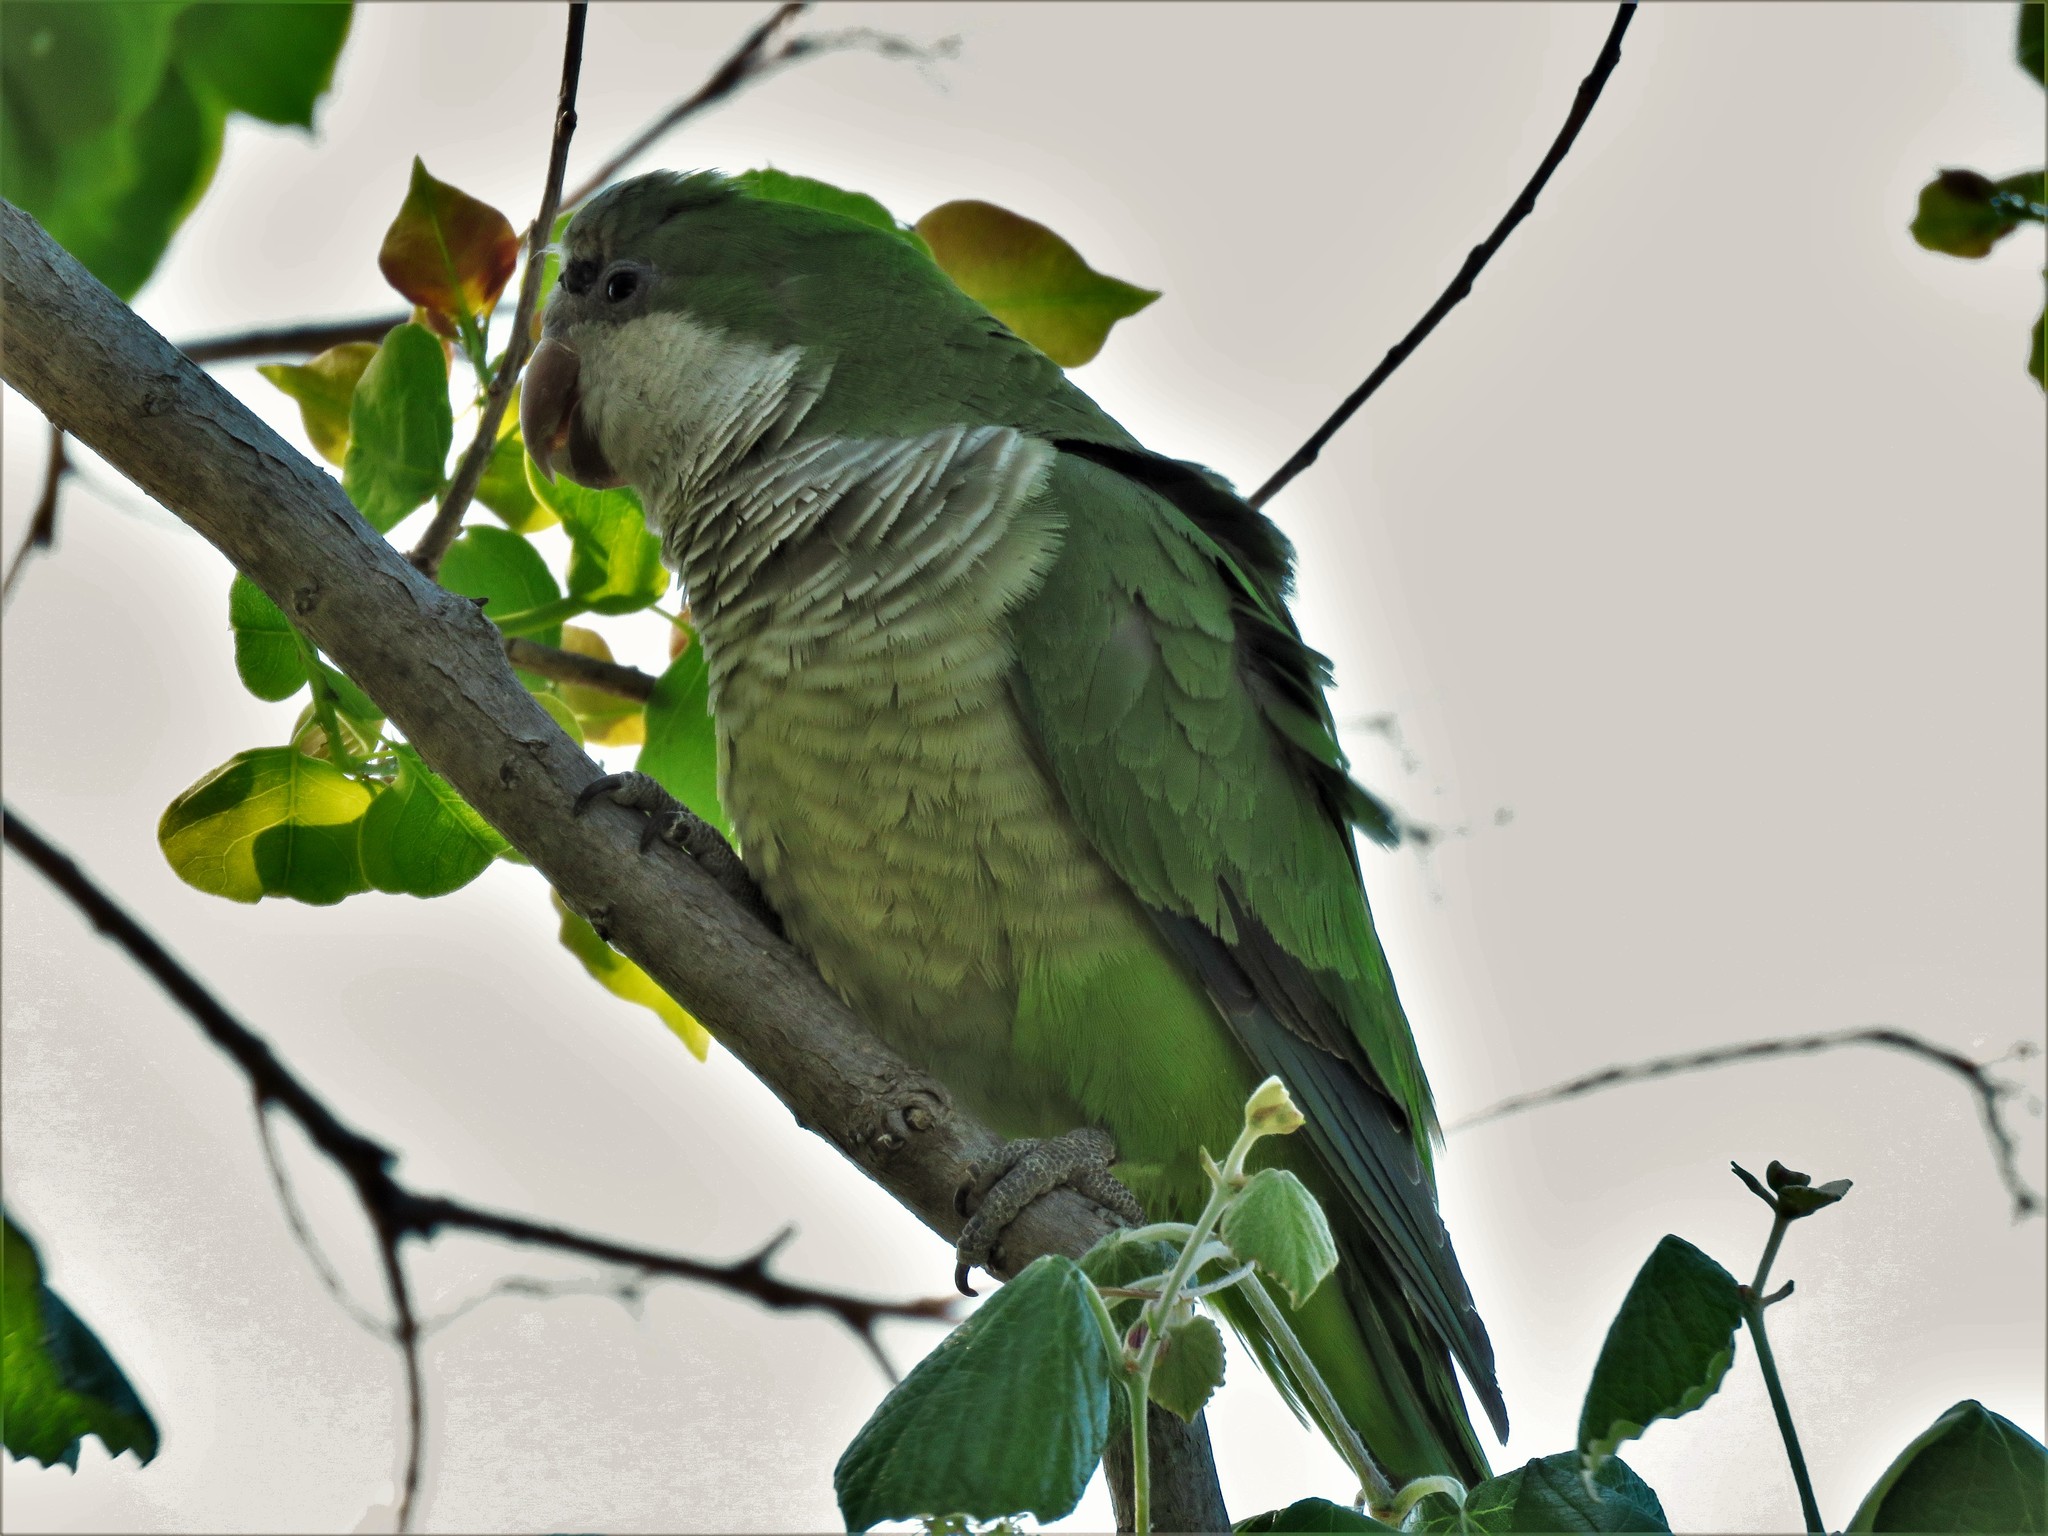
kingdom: Animalia
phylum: Chordata
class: Aves
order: Psittaciformes
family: Psittacidae
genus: Myiopsitta
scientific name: Myiopsitta monachus
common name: Monk parakeet
